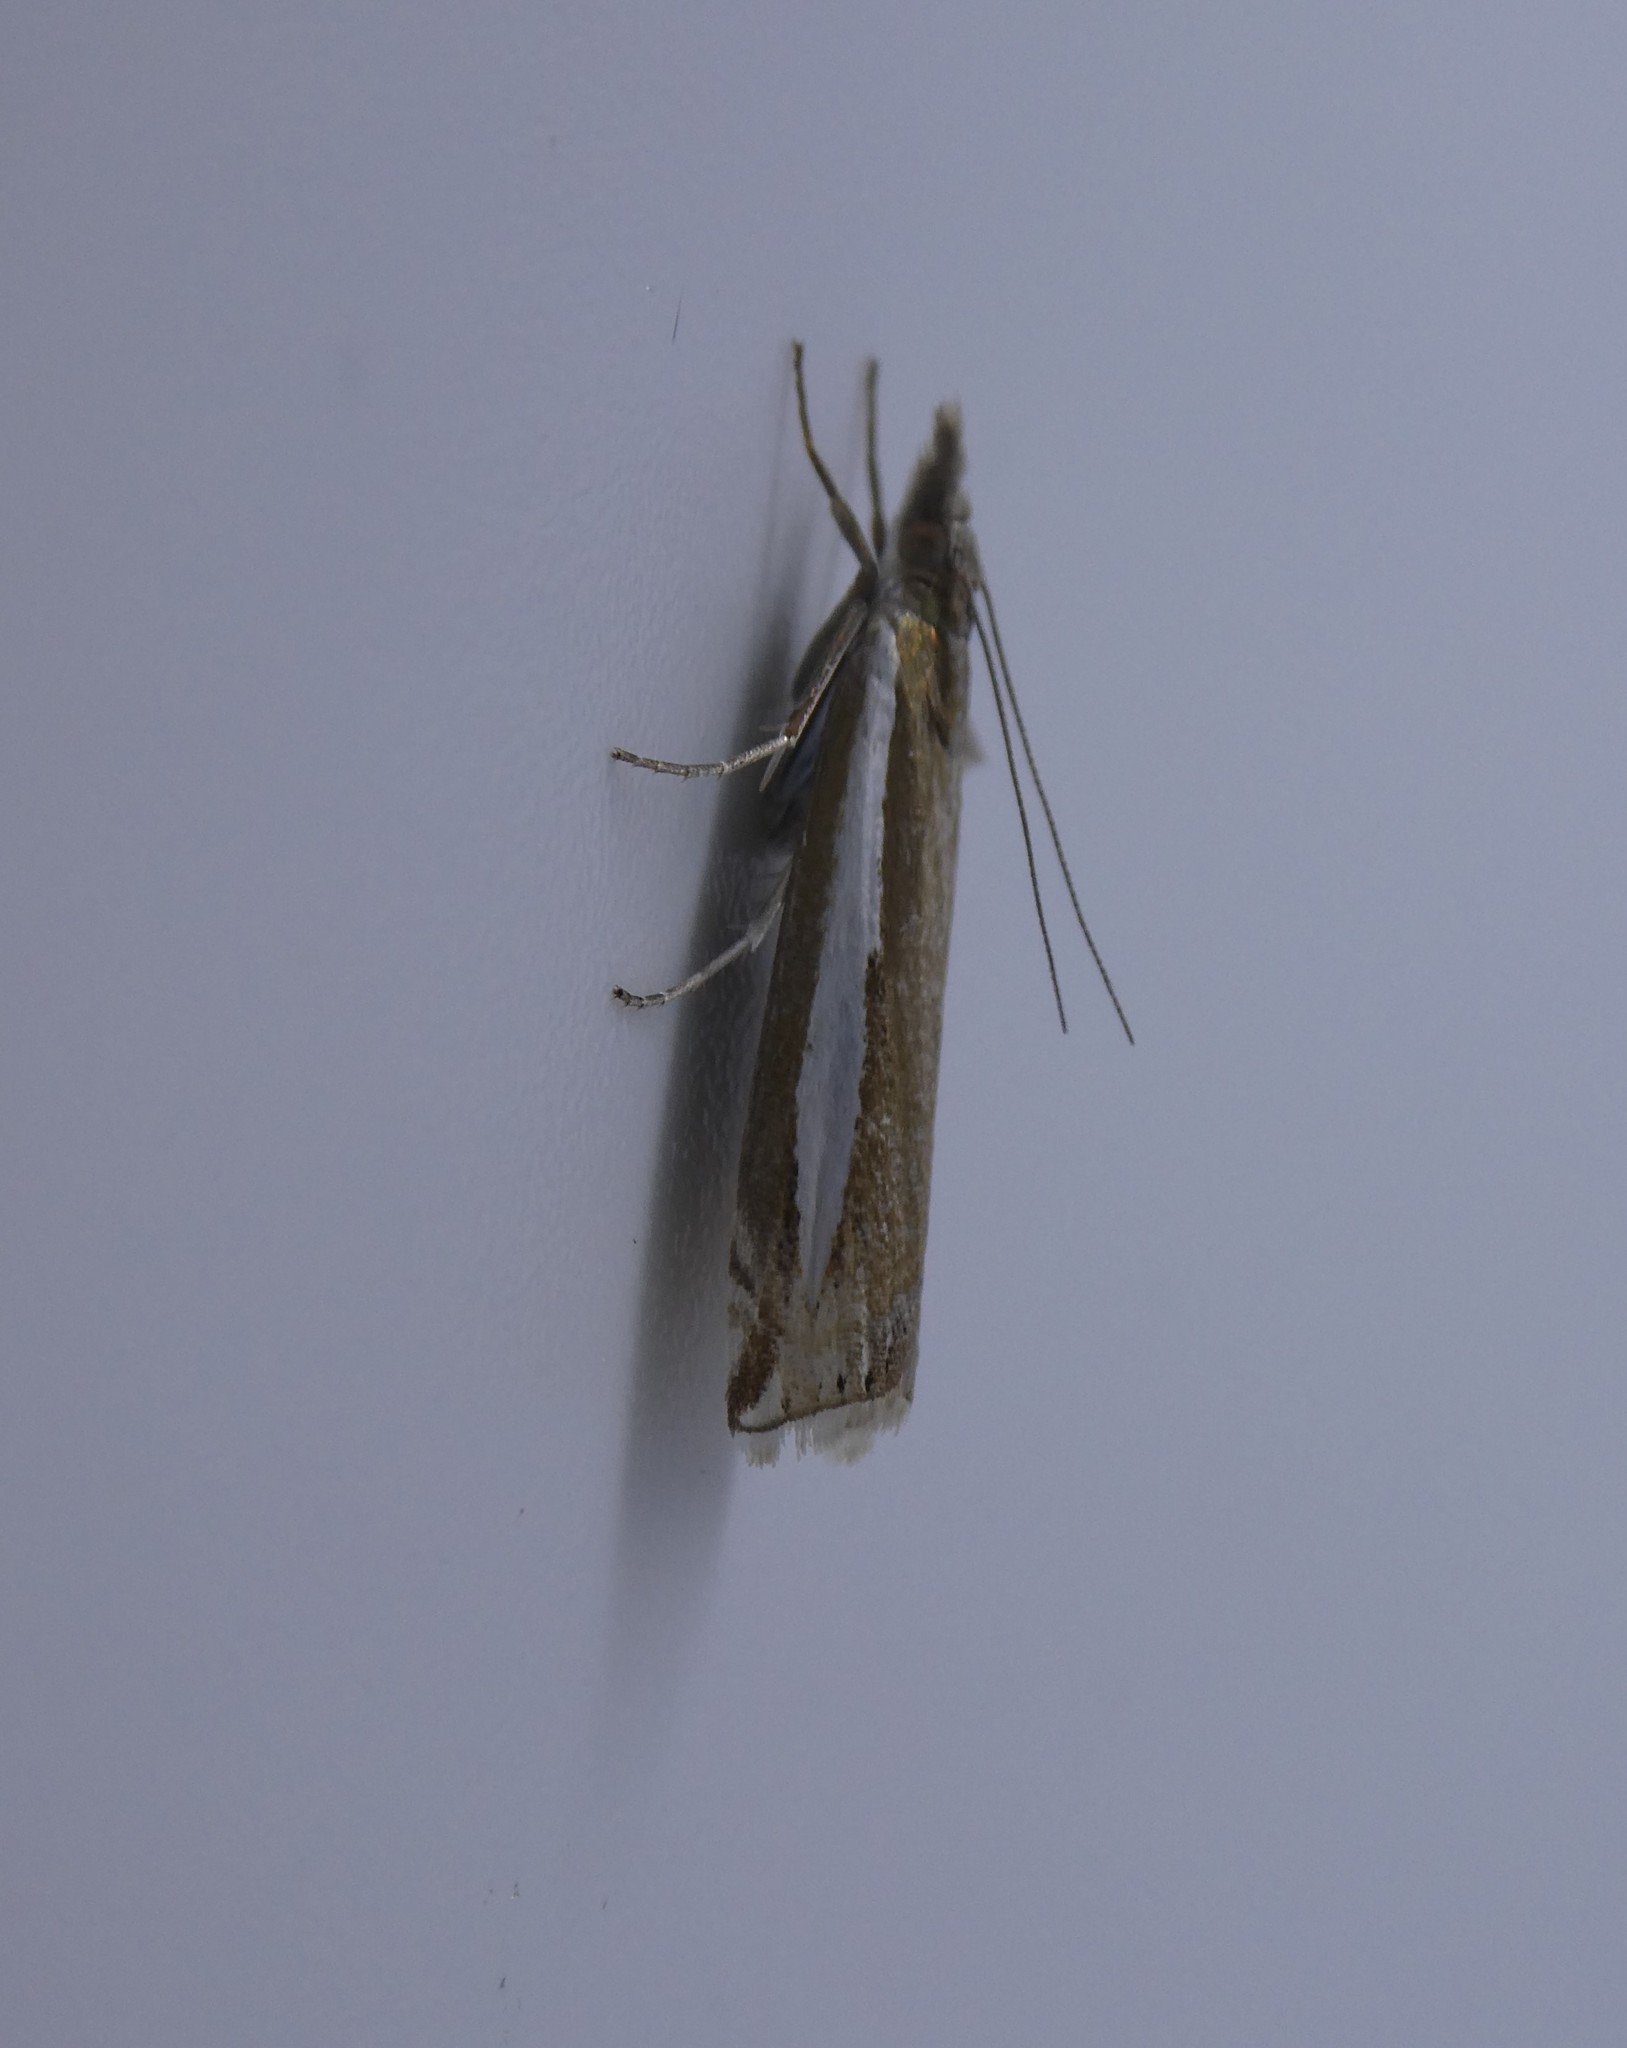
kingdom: Animalia
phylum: Arthropoda
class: Insecta
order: Lepidoptera
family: Crambidae
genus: Crambus
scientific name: Crambus praefectellus
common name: Common grass-veneer
